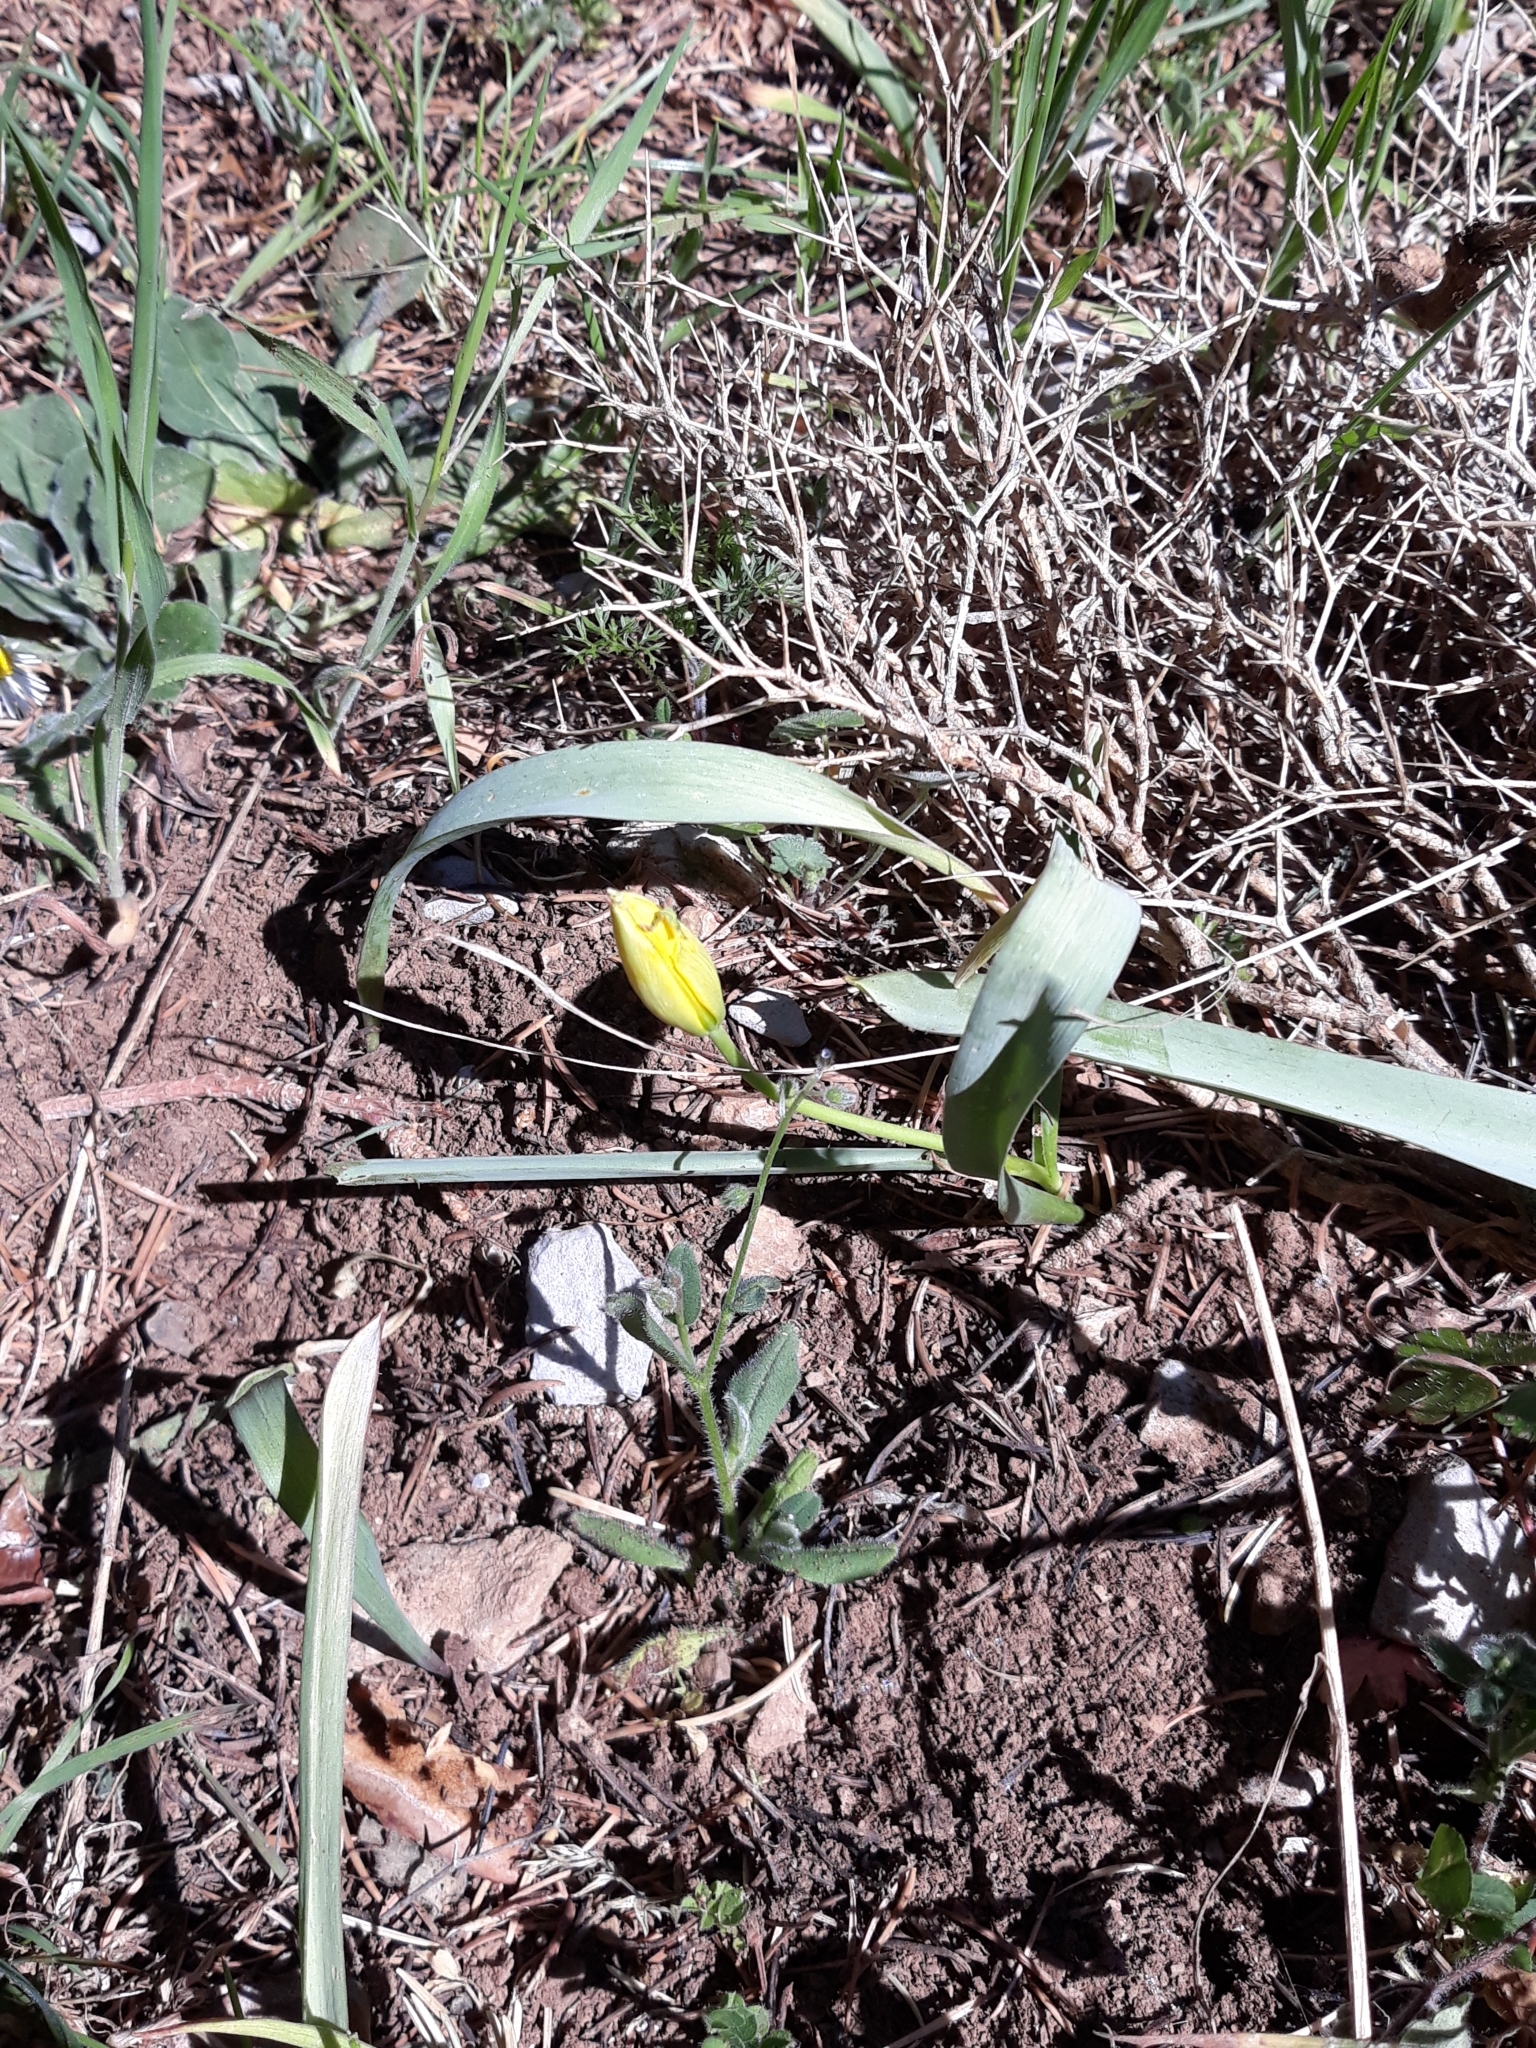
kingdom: Plantae
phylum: Tracheophyta
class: Liliopsida
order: Liliales
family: Liliaceae
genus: Tulipa
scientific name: Tulipa sylvestris
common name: Wild tulip
